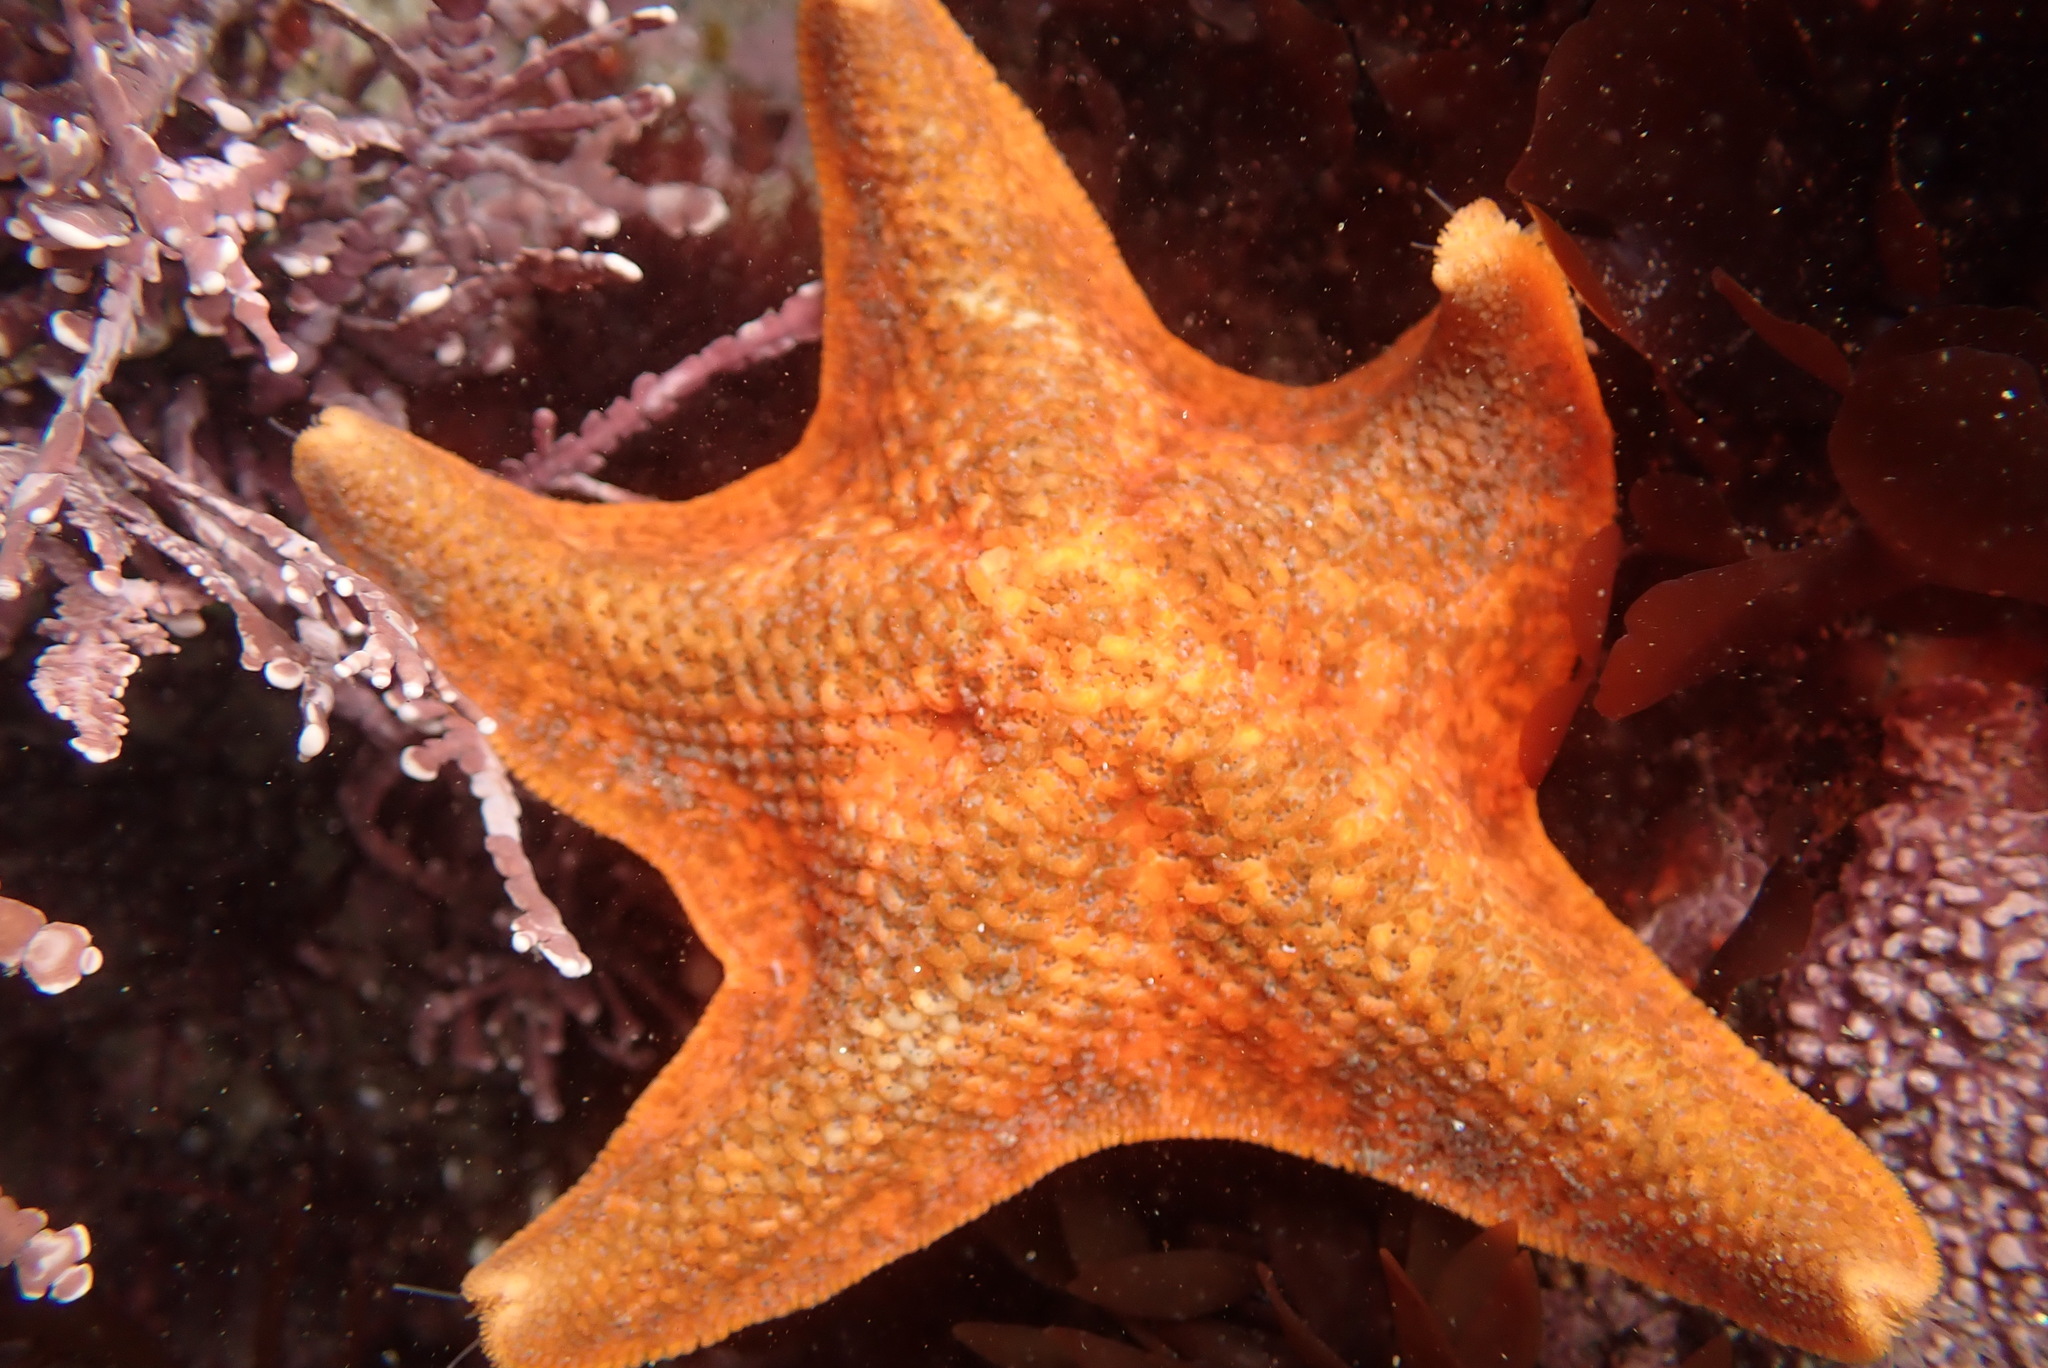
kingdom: Animalia
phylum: Echinodermata
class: Asteroidea
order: Valvatida
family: Asterinidae
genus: Patiria
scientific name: Patiria miniata
